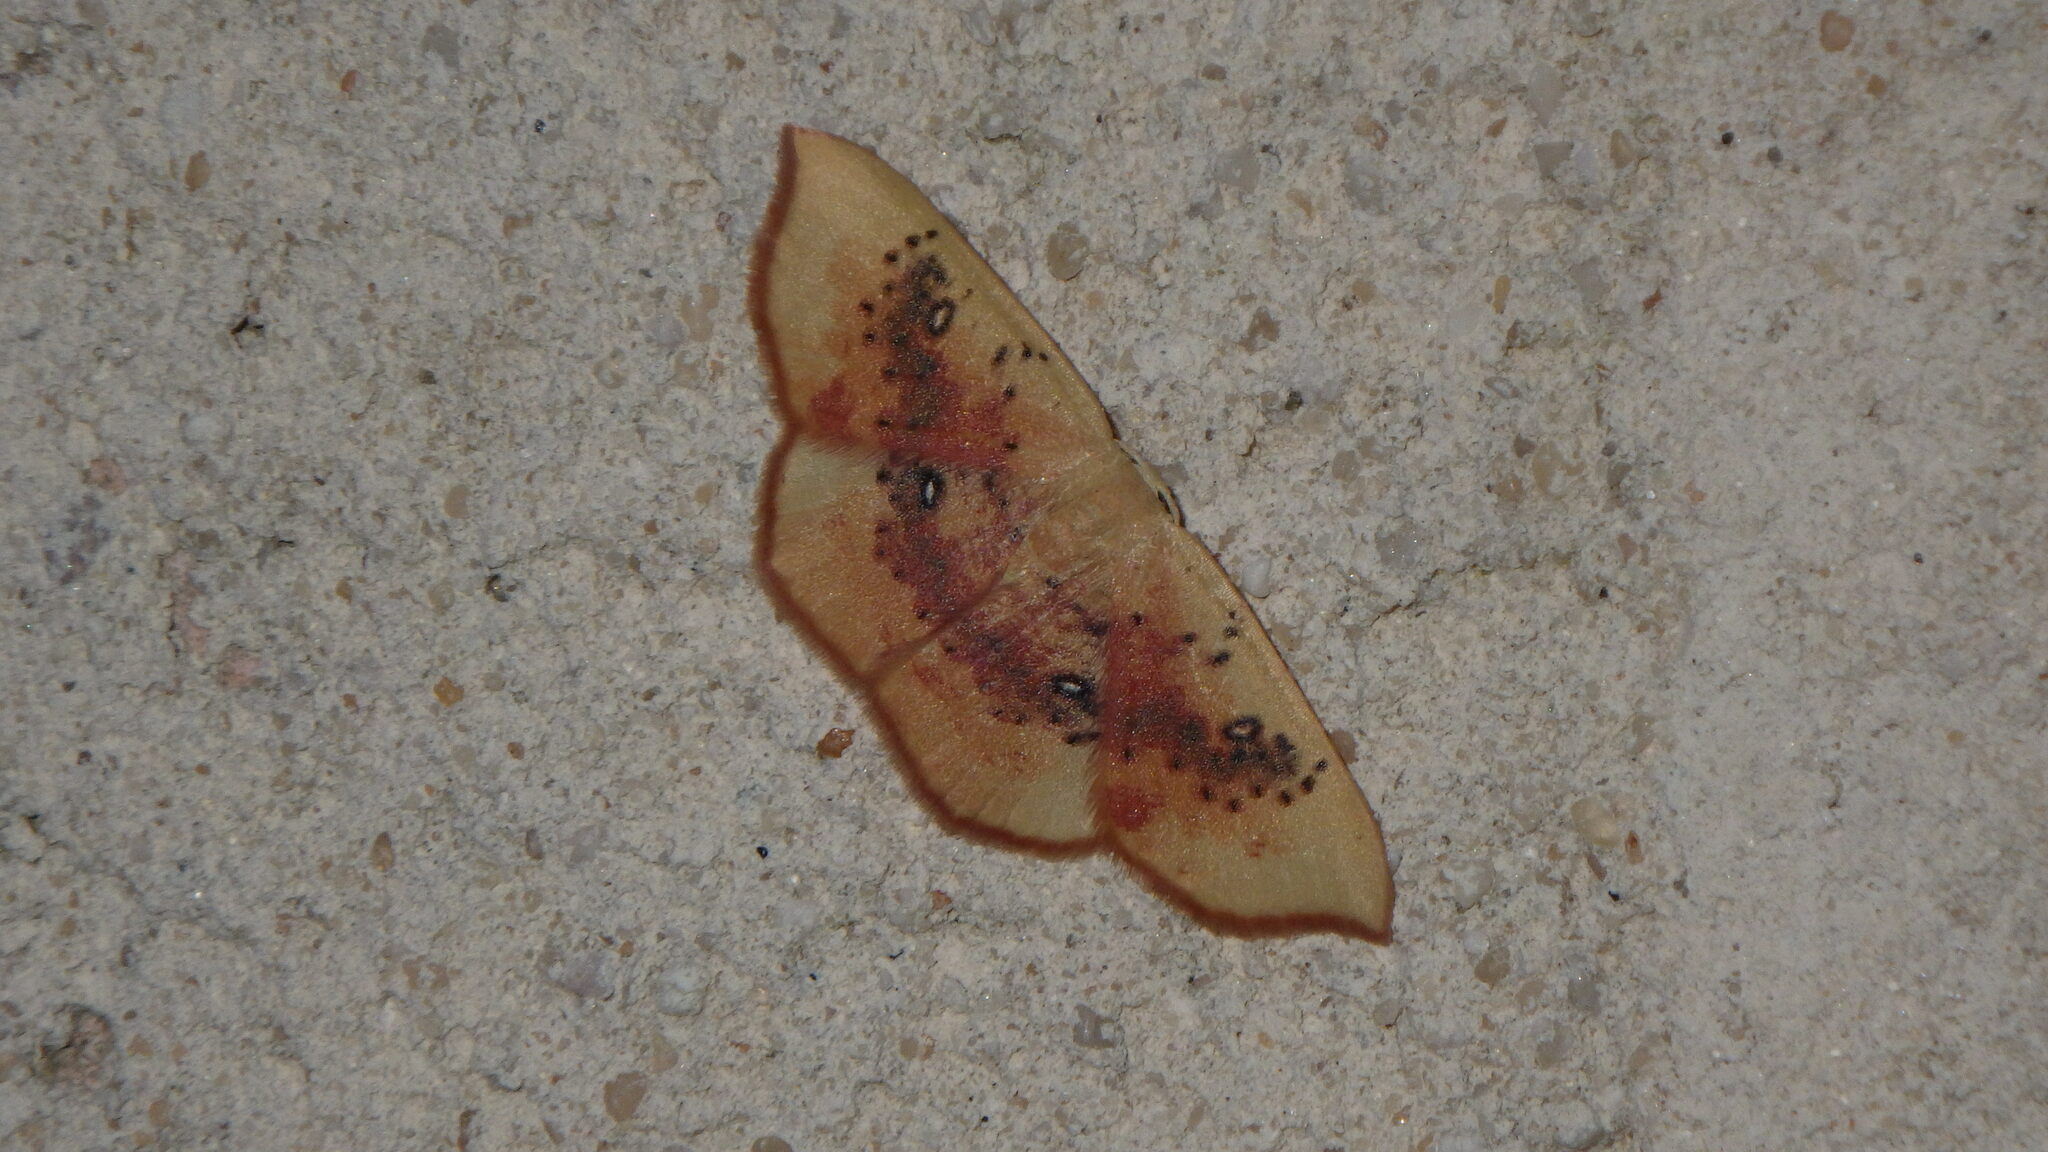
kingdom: Animalia
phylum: Arthropoda
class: Insecta
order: Lepidoptera
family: Geometridae
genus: Cyclophora
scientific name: Cyclophora lennigiaria
